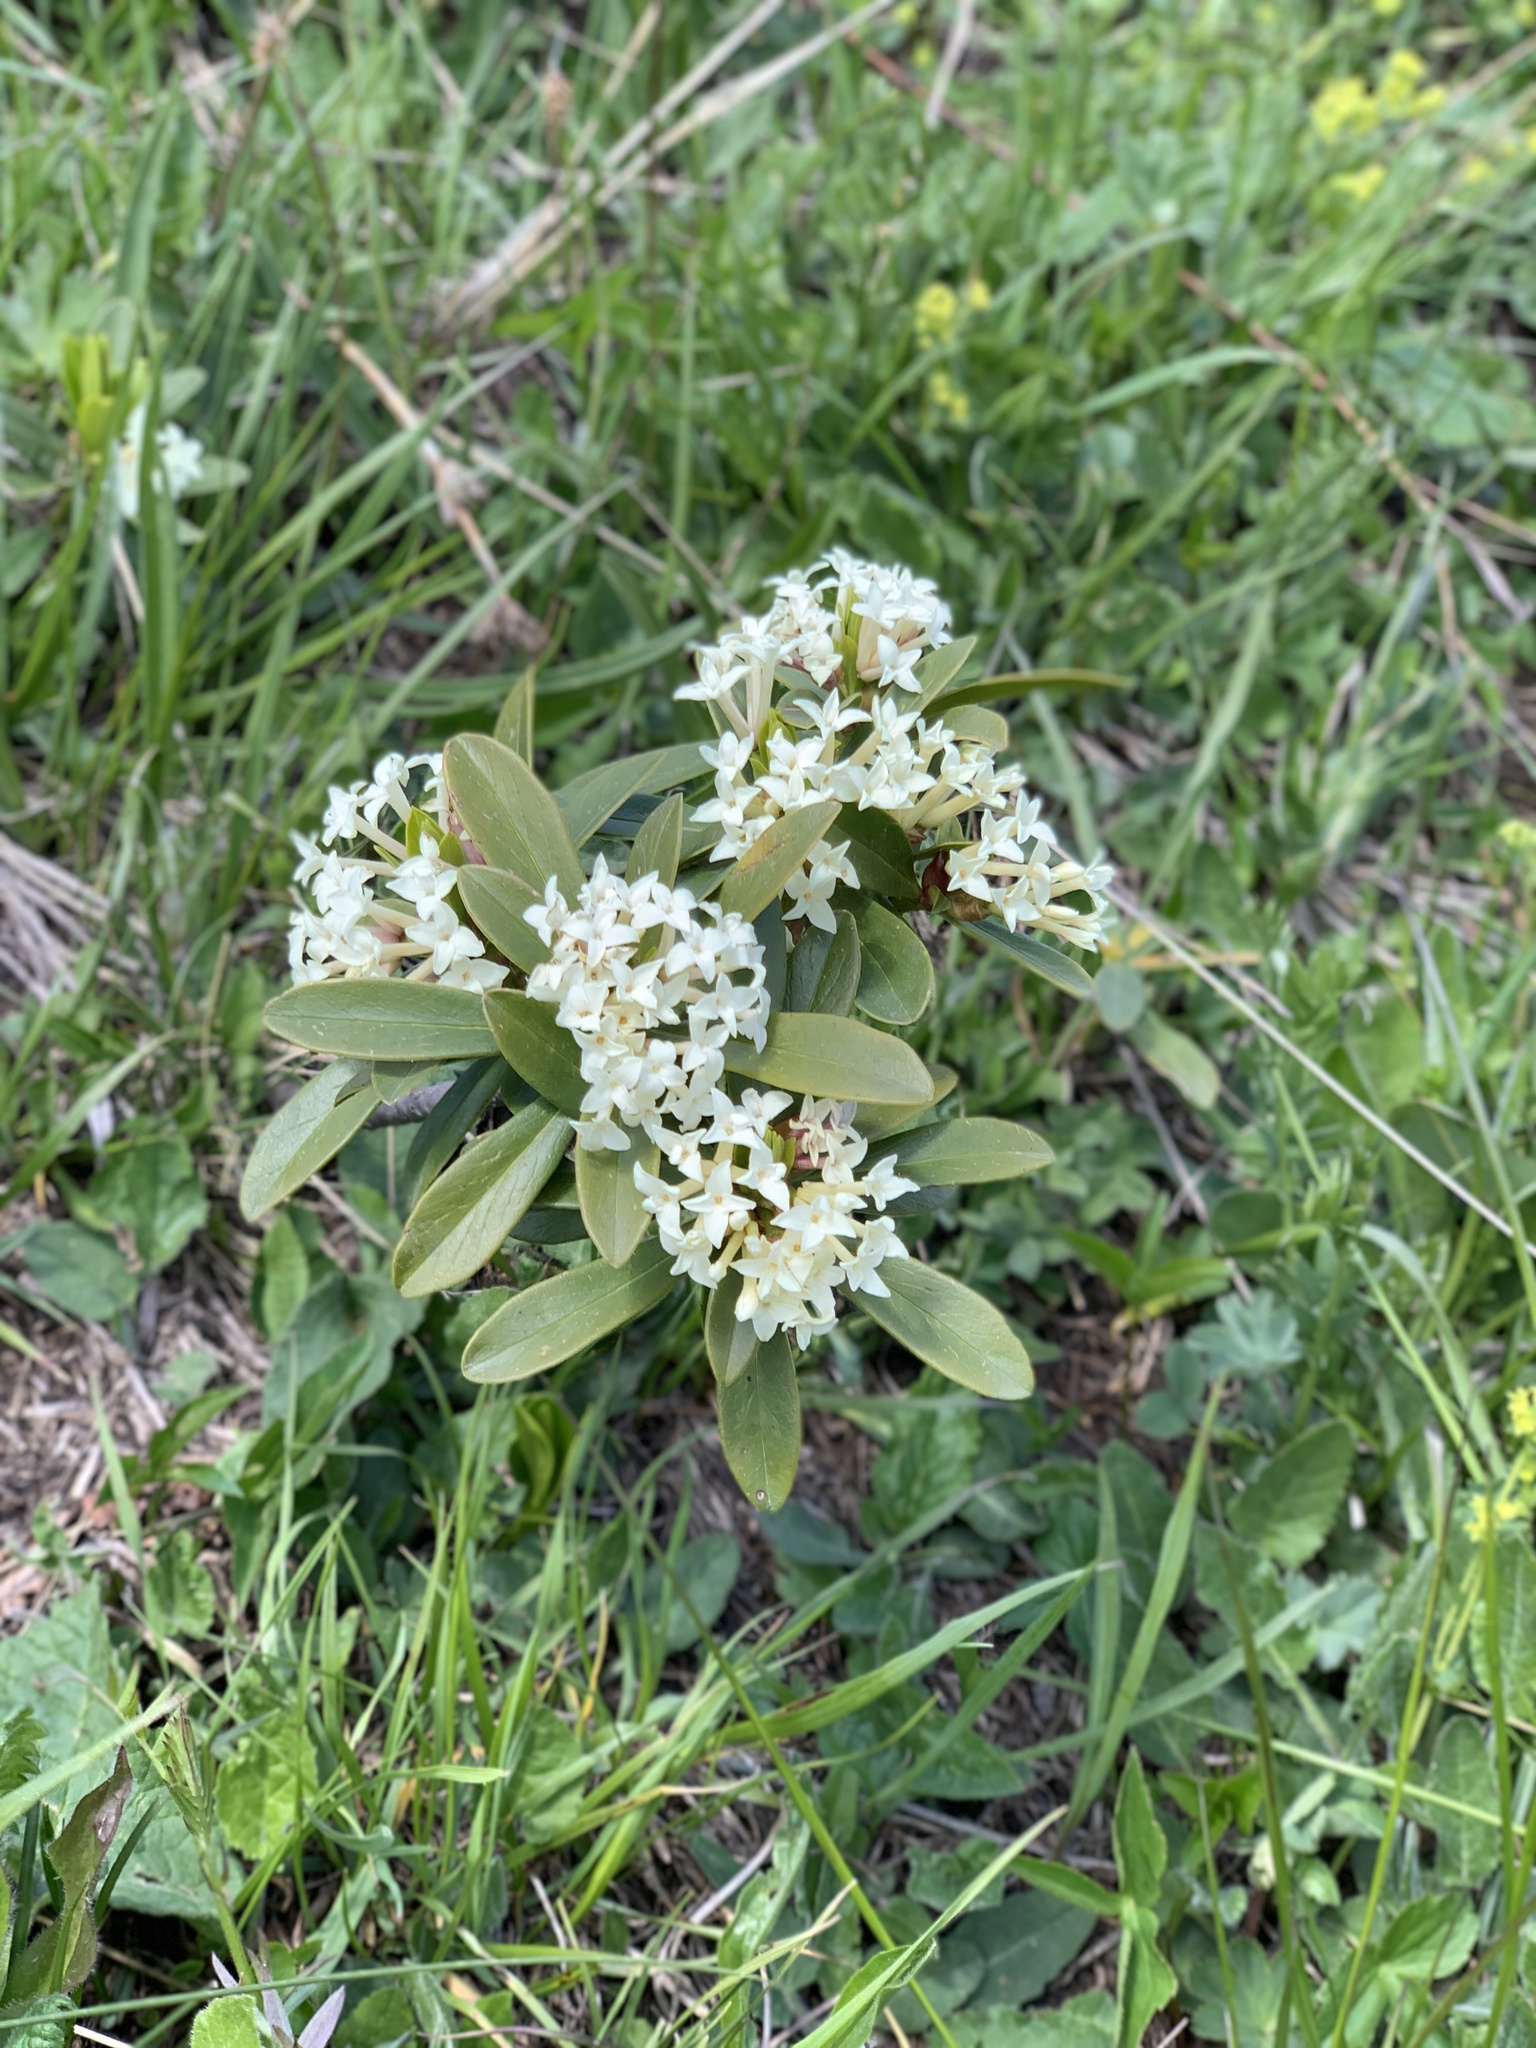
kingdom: Plantae
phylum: Tracheophyta
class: Magnoliopsida
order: Malvales
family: Thymelaeaceae
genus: Daphne
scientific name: Daphne glomerata
